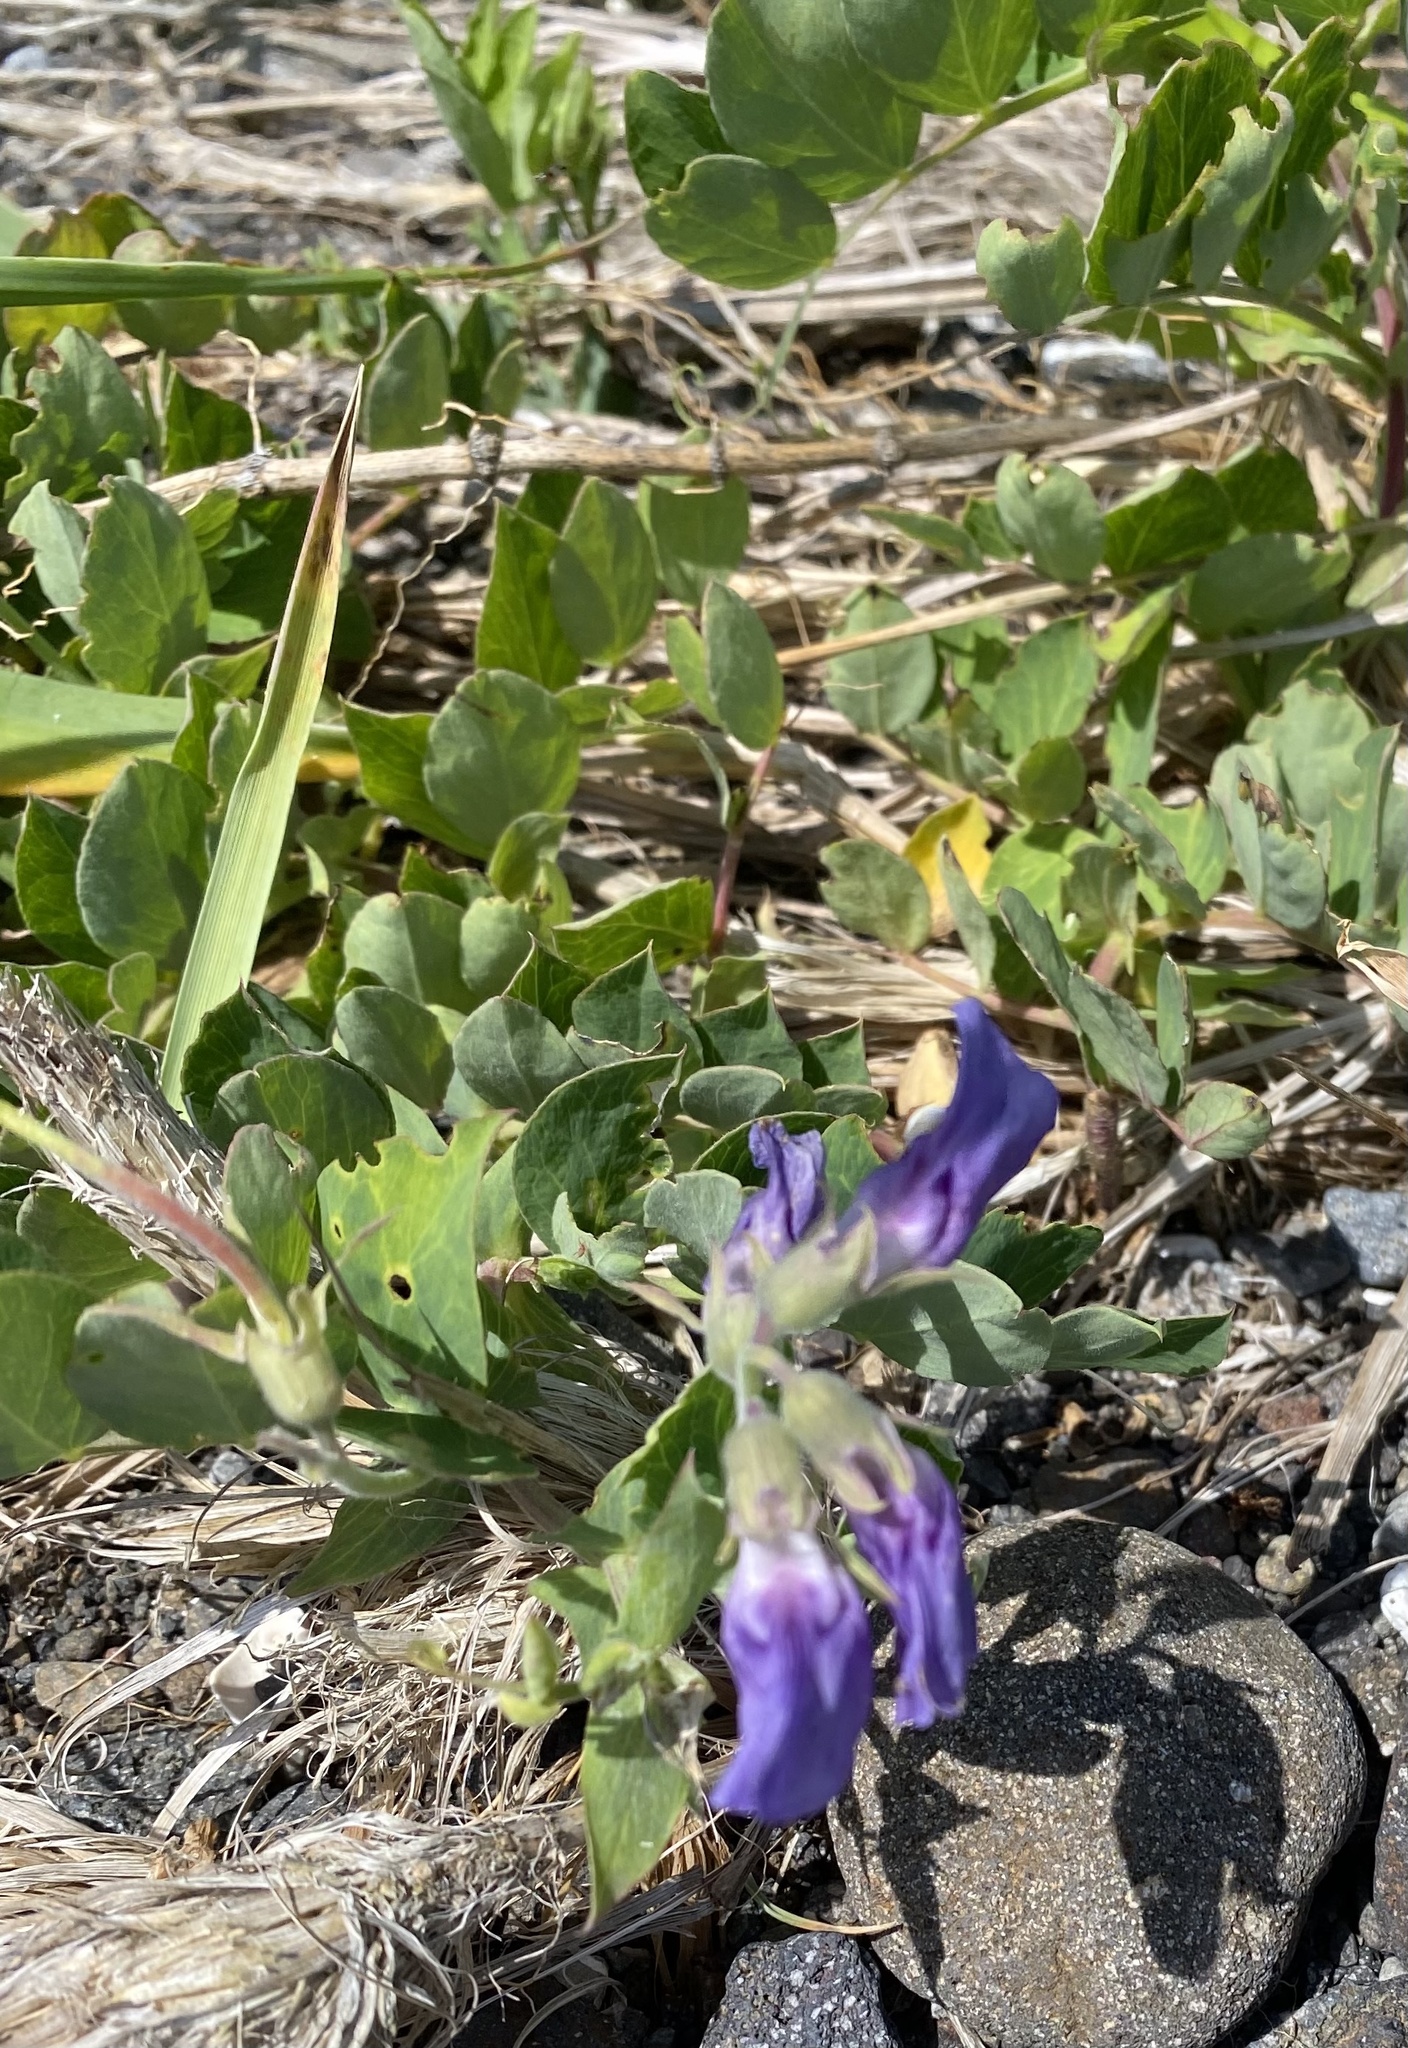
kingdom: Plantae
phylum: Tracheophyta
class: Magnoliopsida
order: Fabales
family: Fabaceae
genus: Lathyrus
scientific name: Lathyrus japonicus
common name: Sea pea
